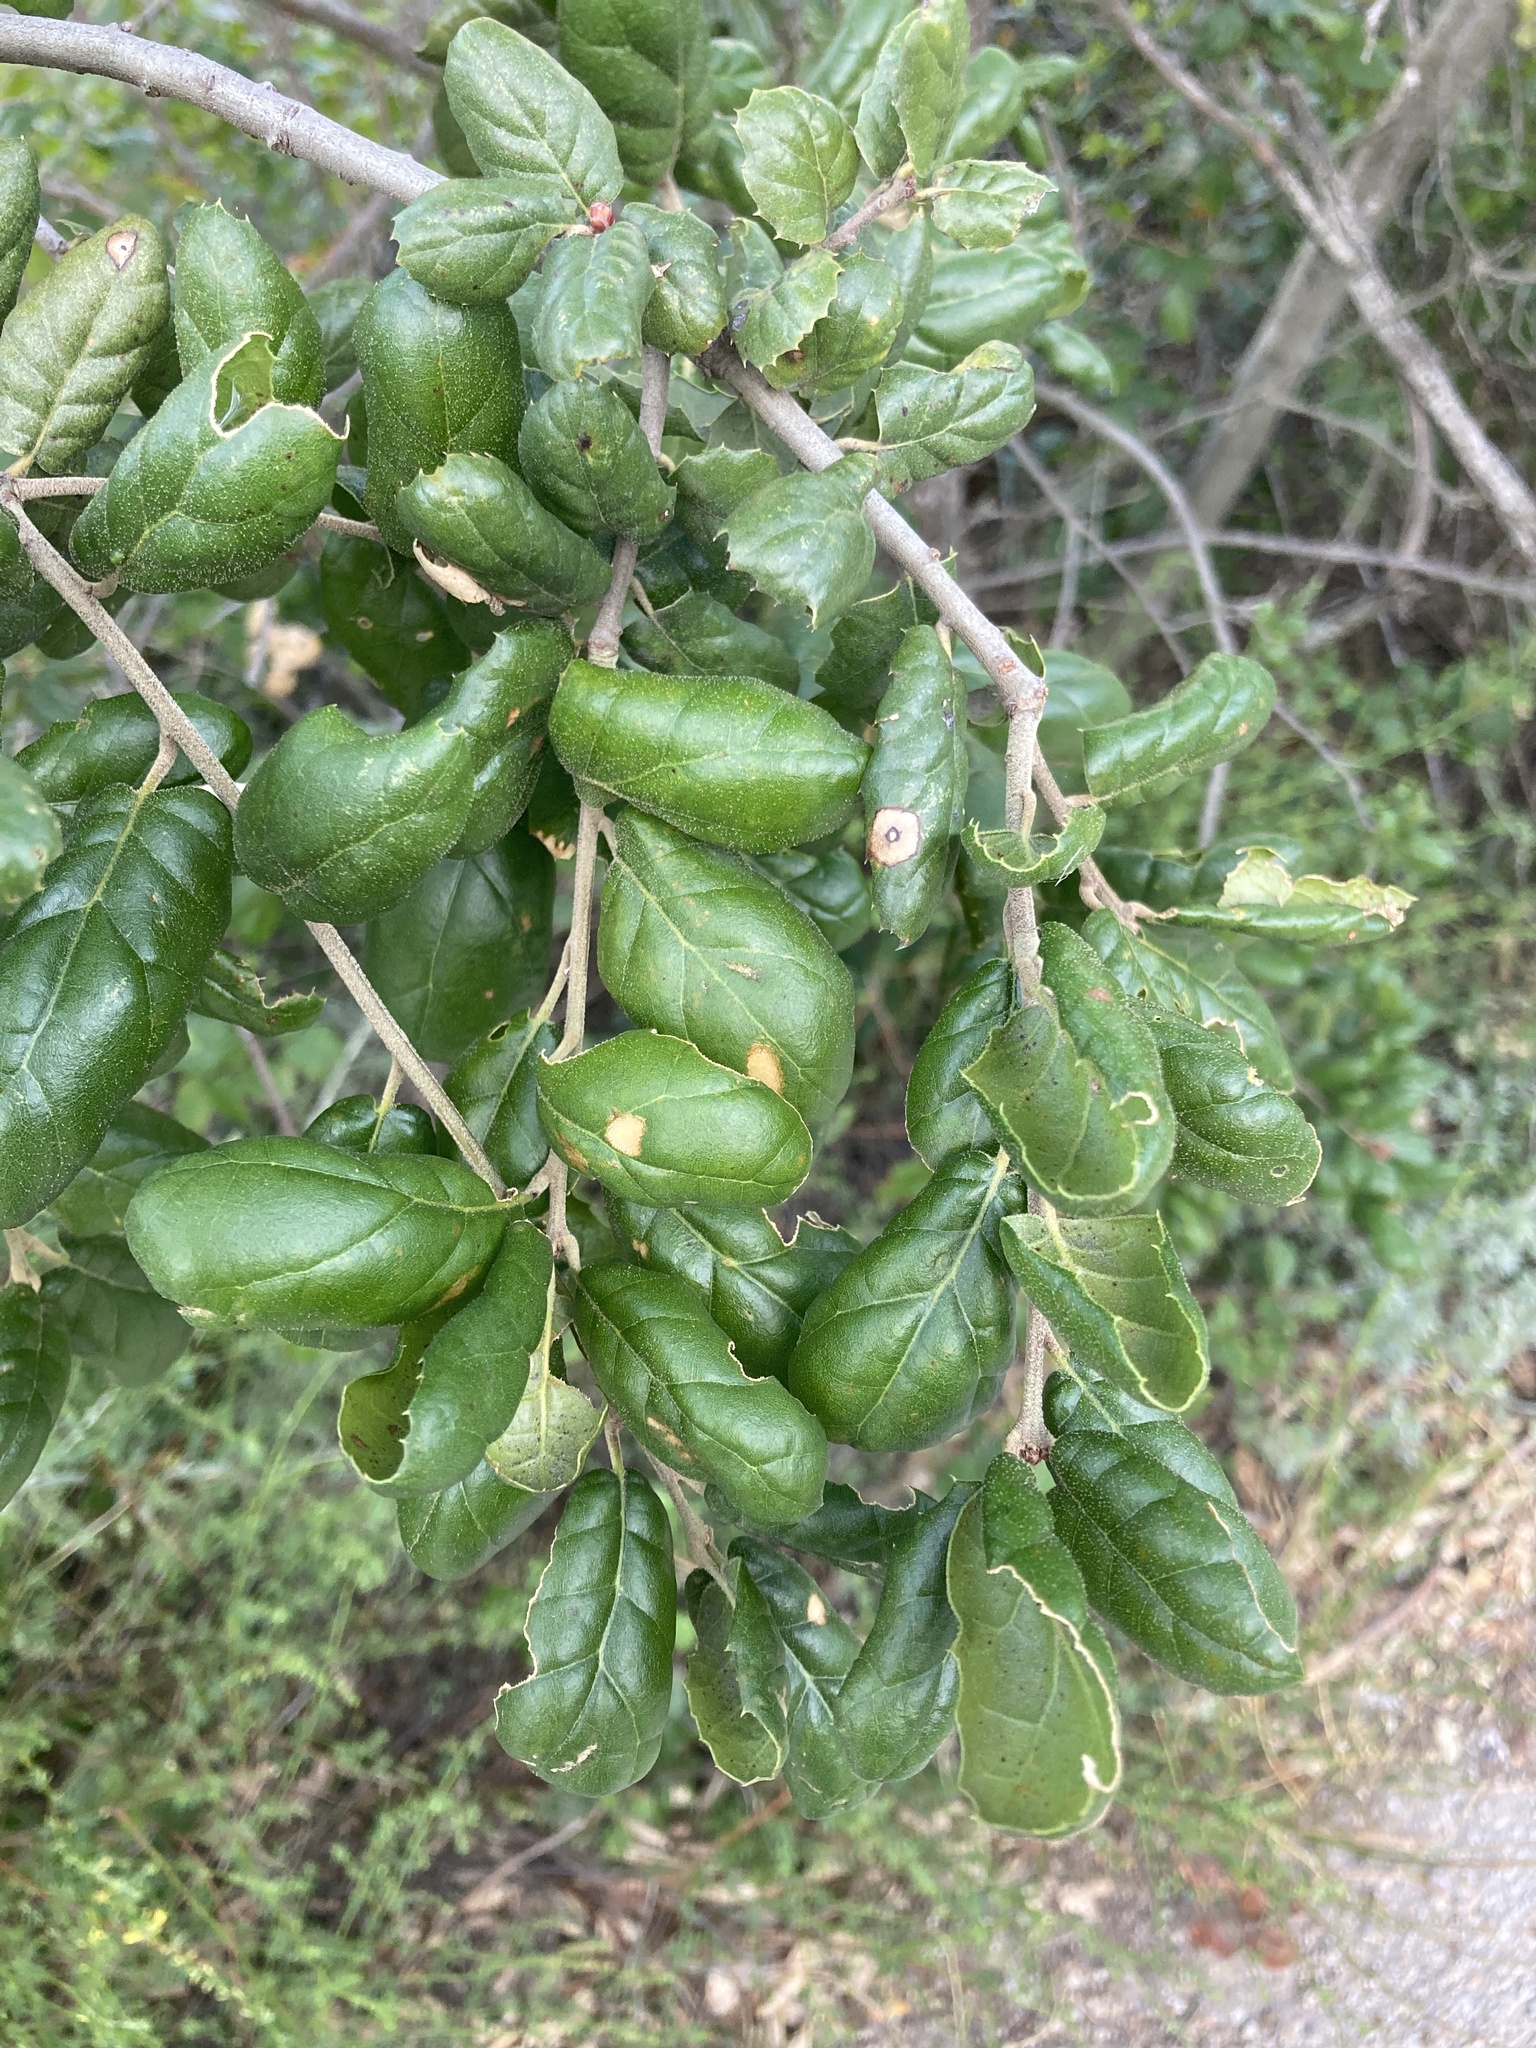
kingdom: Plantae
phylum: Tracheophyta
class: Magnoliopsida
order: Fagales
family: Fagaceae
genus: Quercus
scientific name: Quercus agrifolia
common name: California live oak
